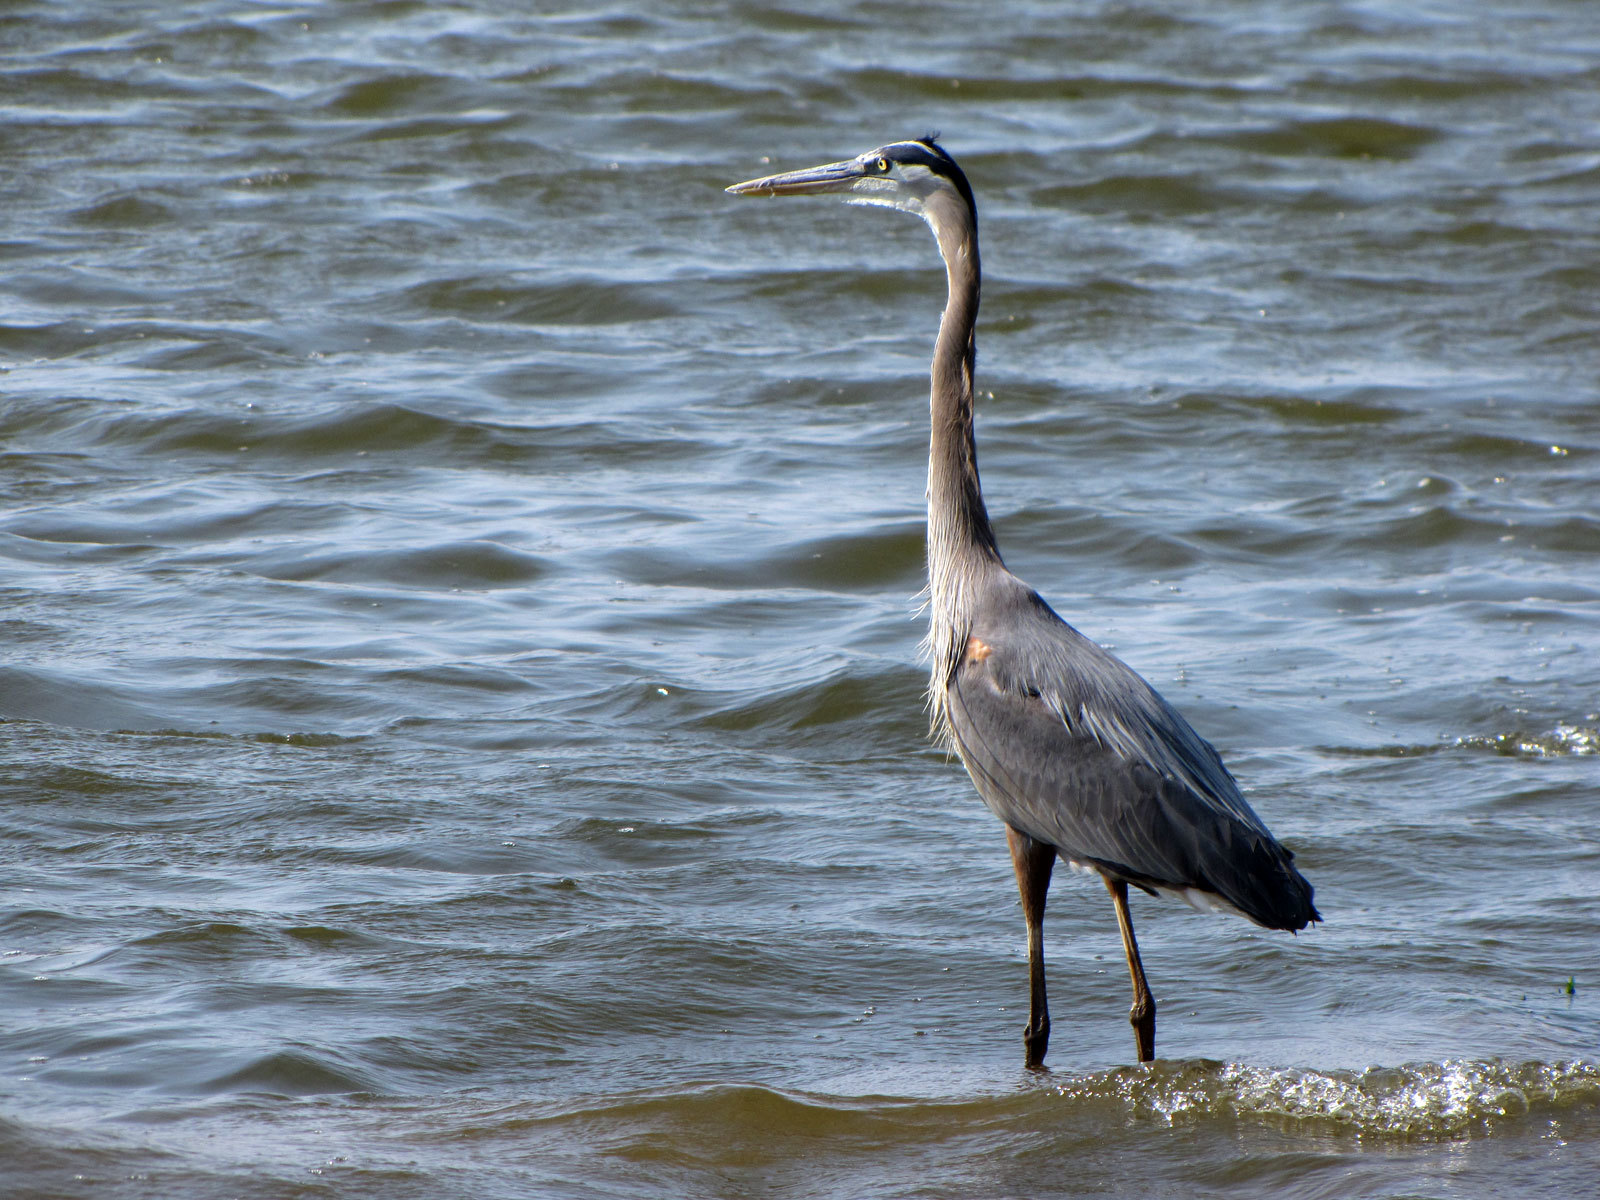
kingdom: Animalia
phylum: Chordata
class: Aves
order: Pelecaniformes
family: Ardeidae
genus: Ardea
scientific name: Ardea herodias
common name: Great blue heron
